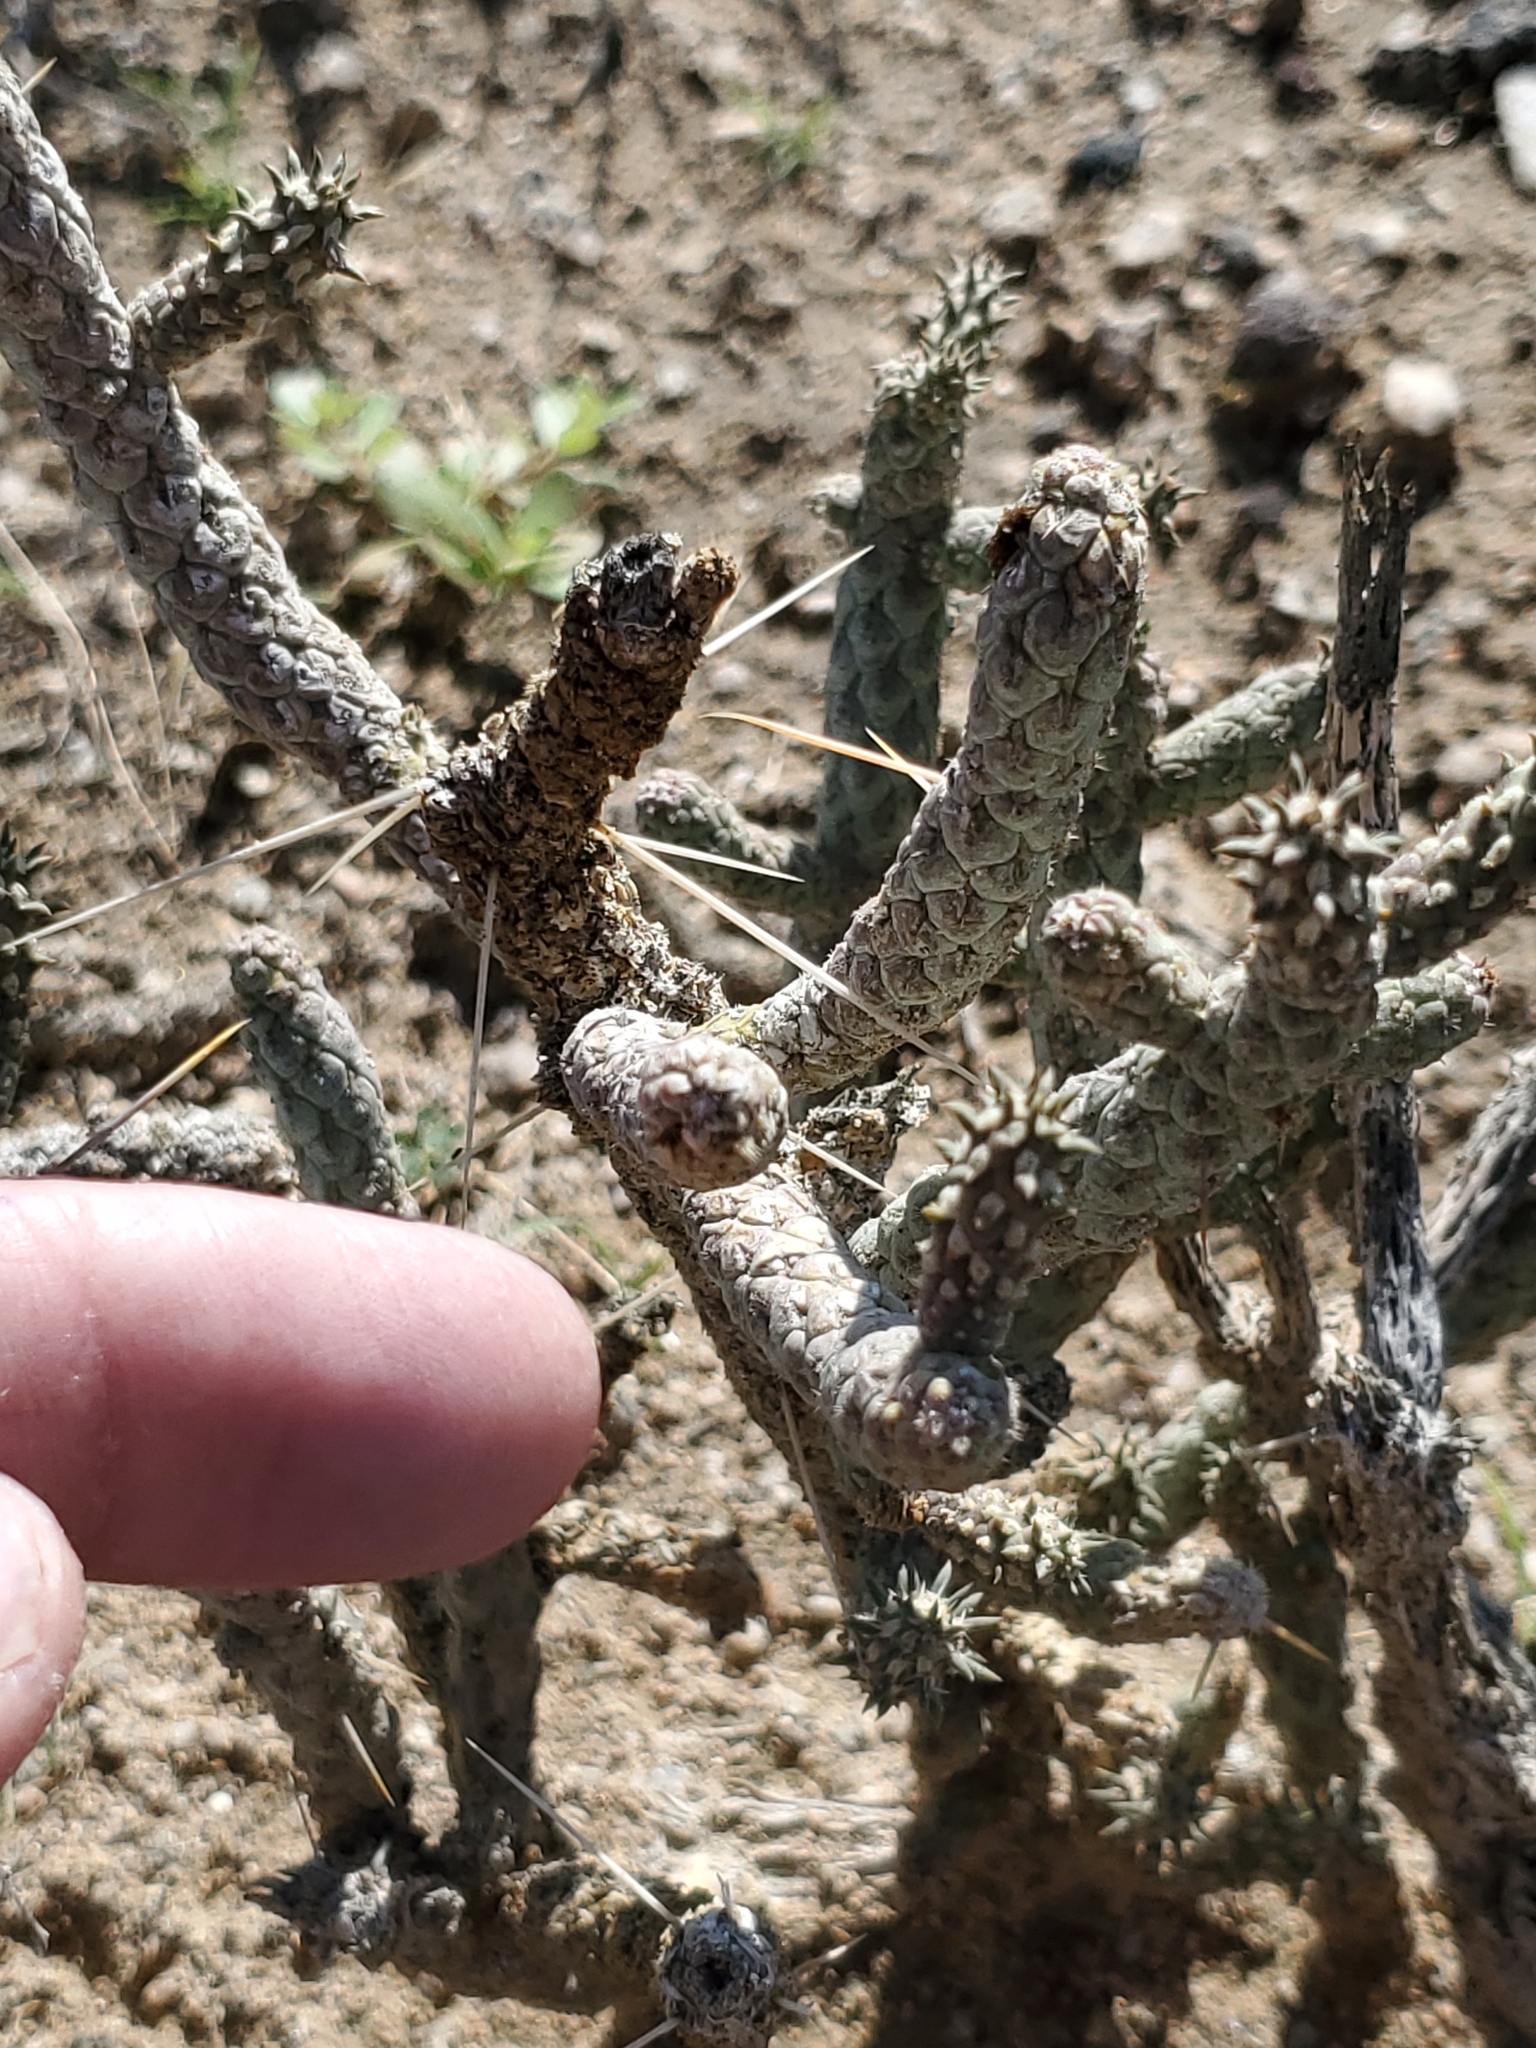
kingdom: Plantae
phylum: Tracheophyta
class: Magnoliopsida
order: Caryophyllales
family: Cactaceae
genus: Cylindropuntia
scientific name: Cylindropuntia ramosissima
